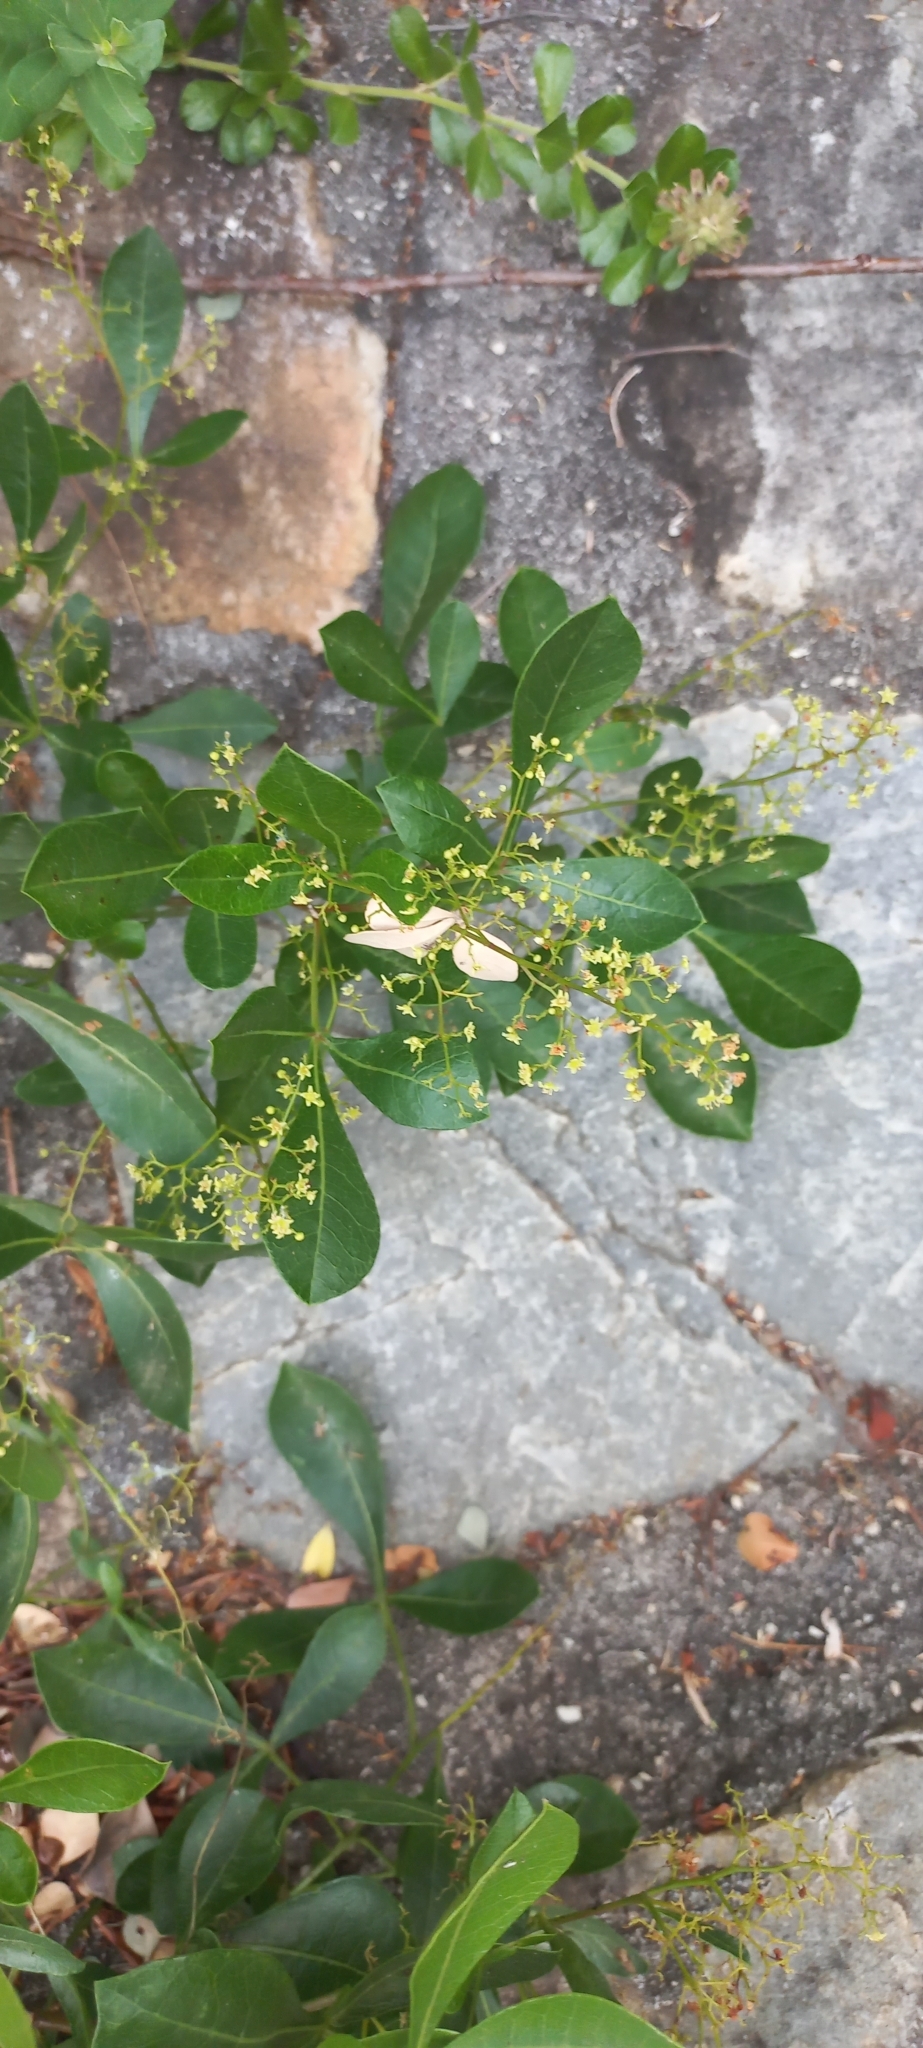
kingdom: Plantae
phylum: Tracheophyta
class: Magnoliopsida
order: Sapindales
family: Anacardiaceae
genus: Searsia
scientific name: Searsia laevigata
